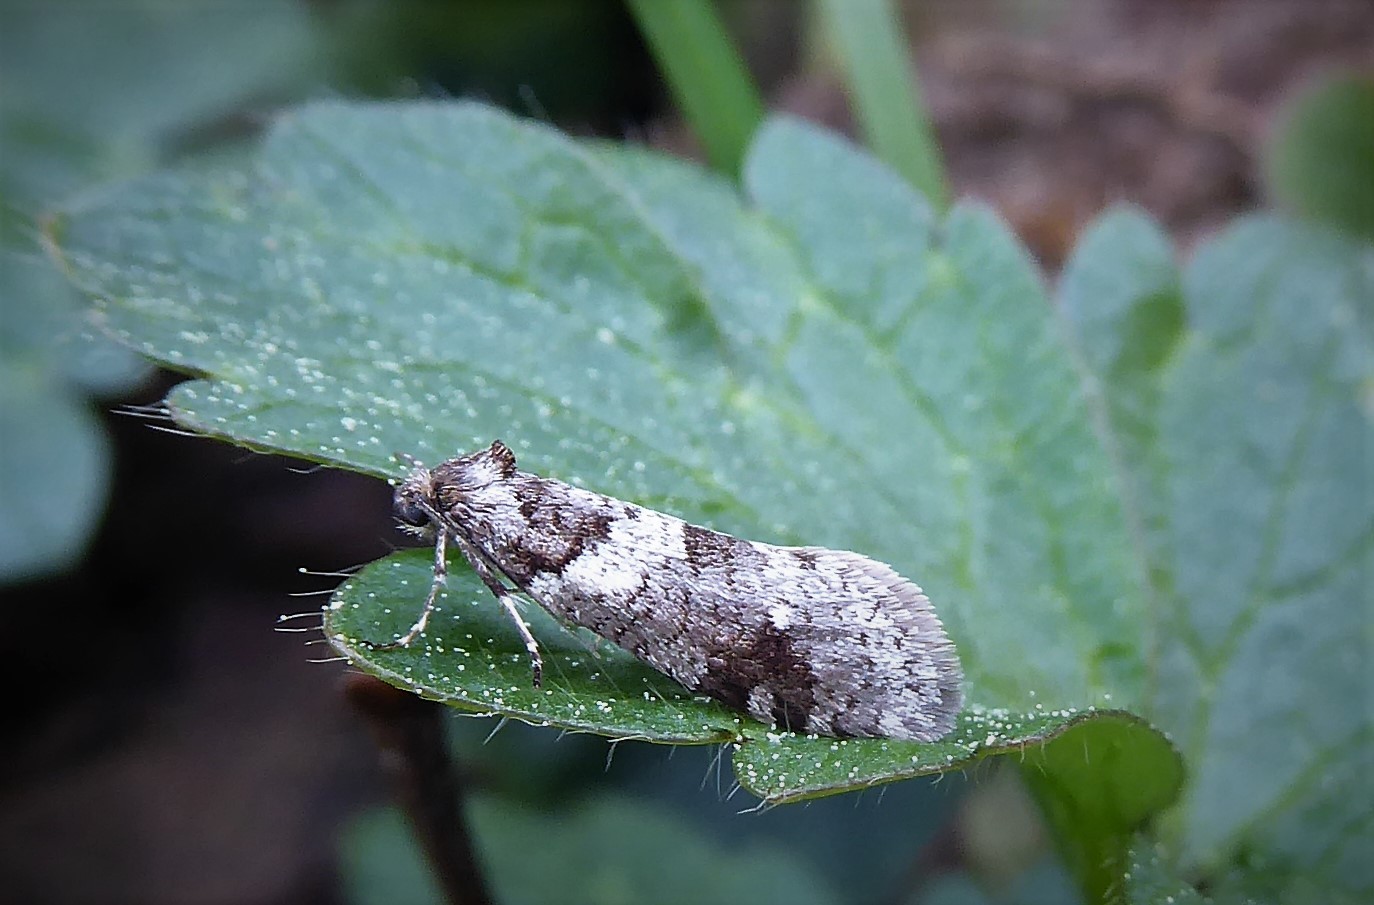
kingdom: Animalia
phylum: Arthropoda
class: Insecta
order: Lepidoptera
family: Psychidae
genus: Lepidoscia
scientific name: Lepidoscia heliochares
